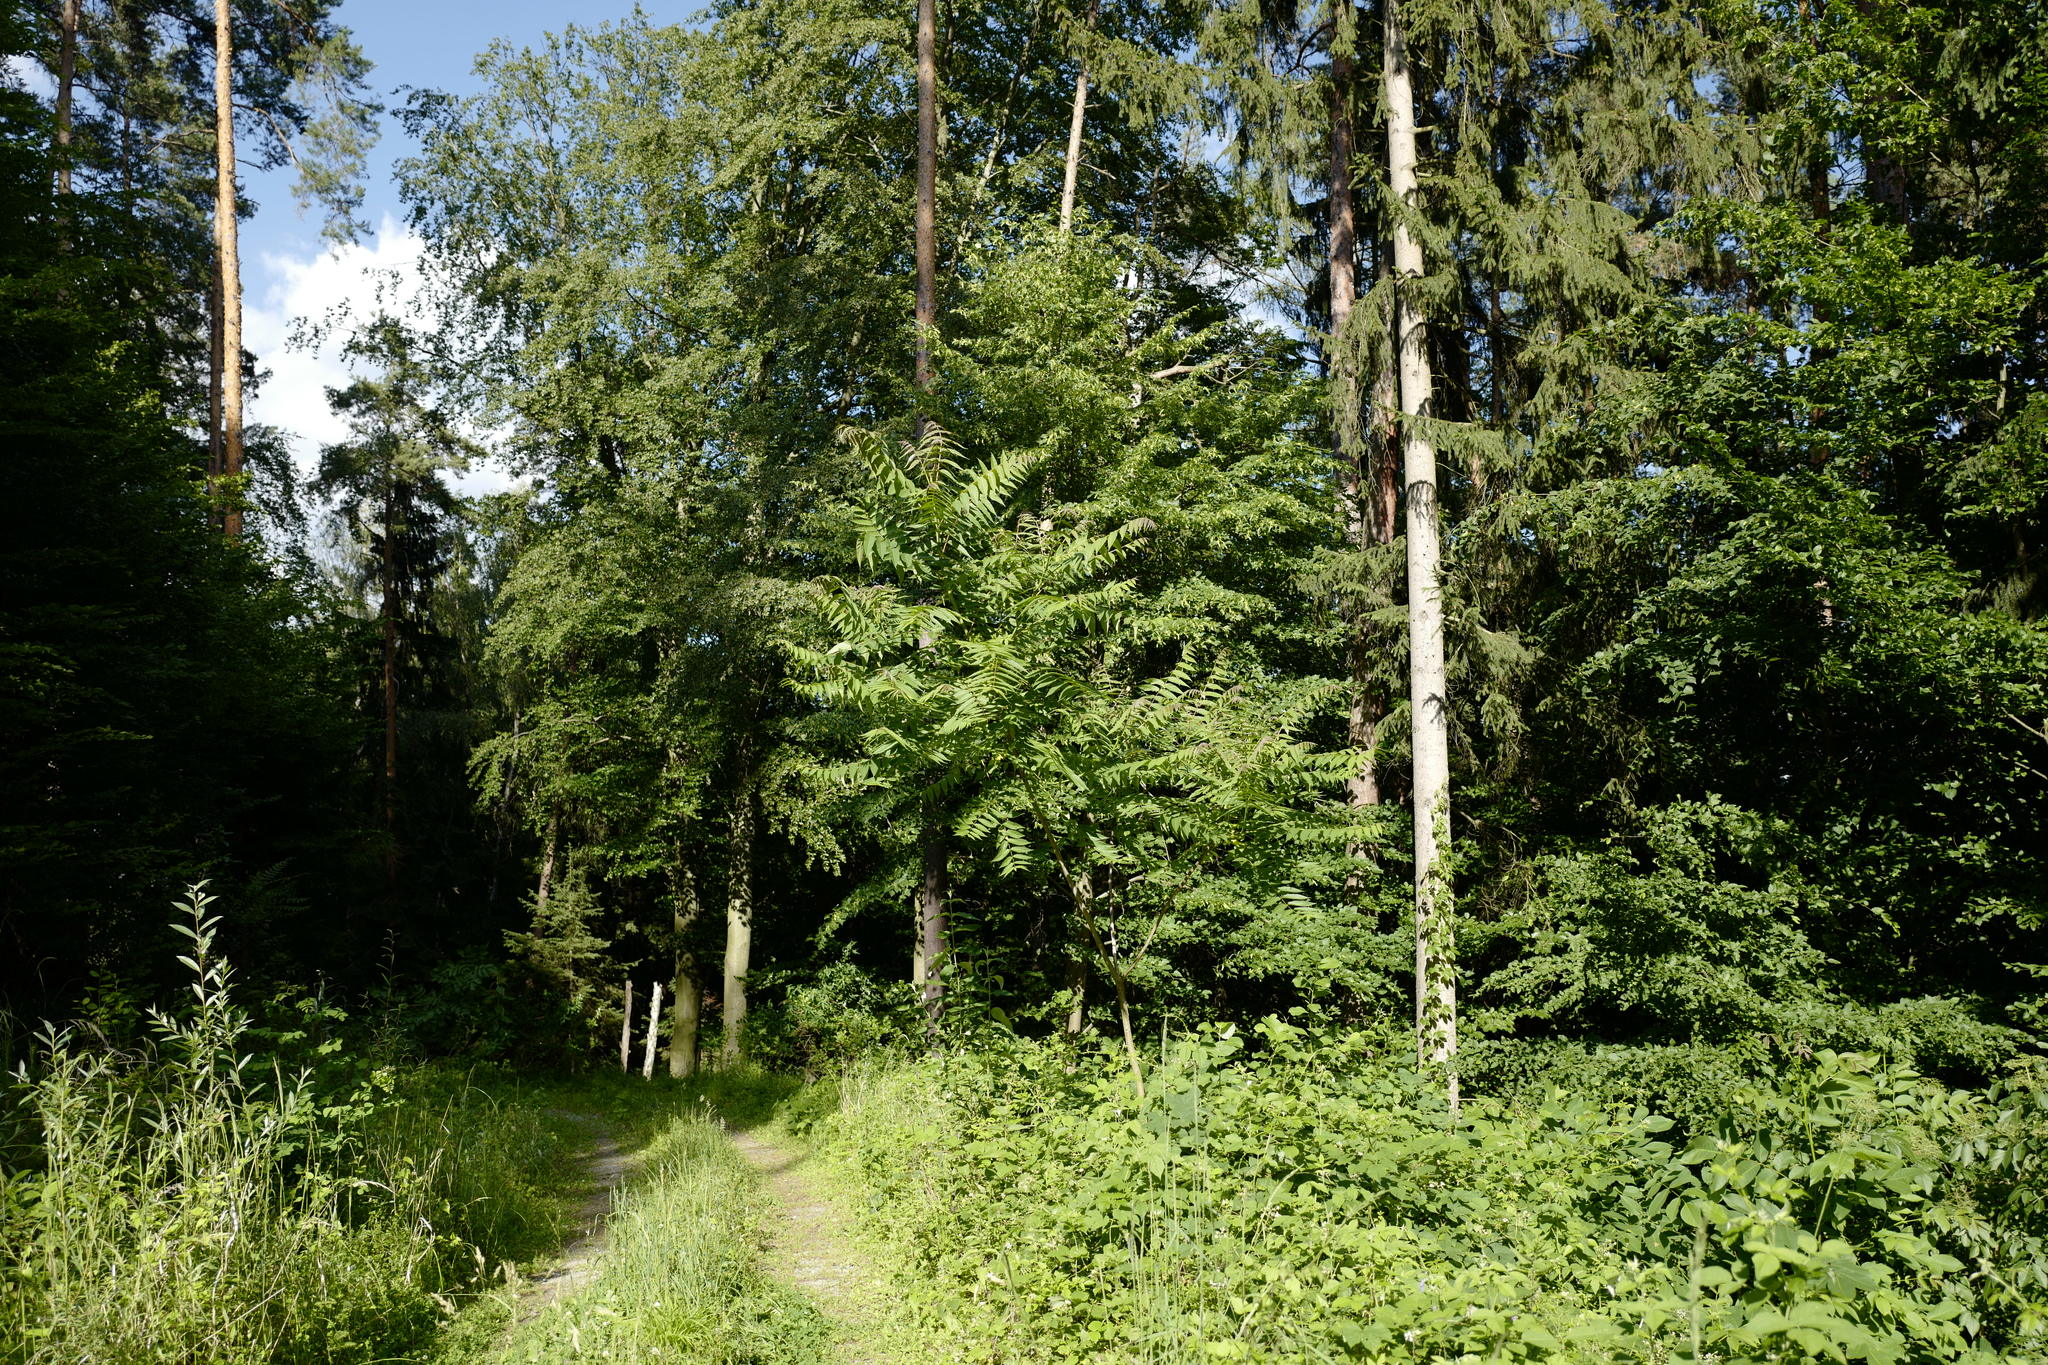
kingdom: Plantae
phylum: Tracheophyta
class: Magnoliopsida
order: Sapindales
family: Simaroubaceae
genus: Ailanthus
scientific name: Ailanthus altissima
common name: Tree-of-heaven
